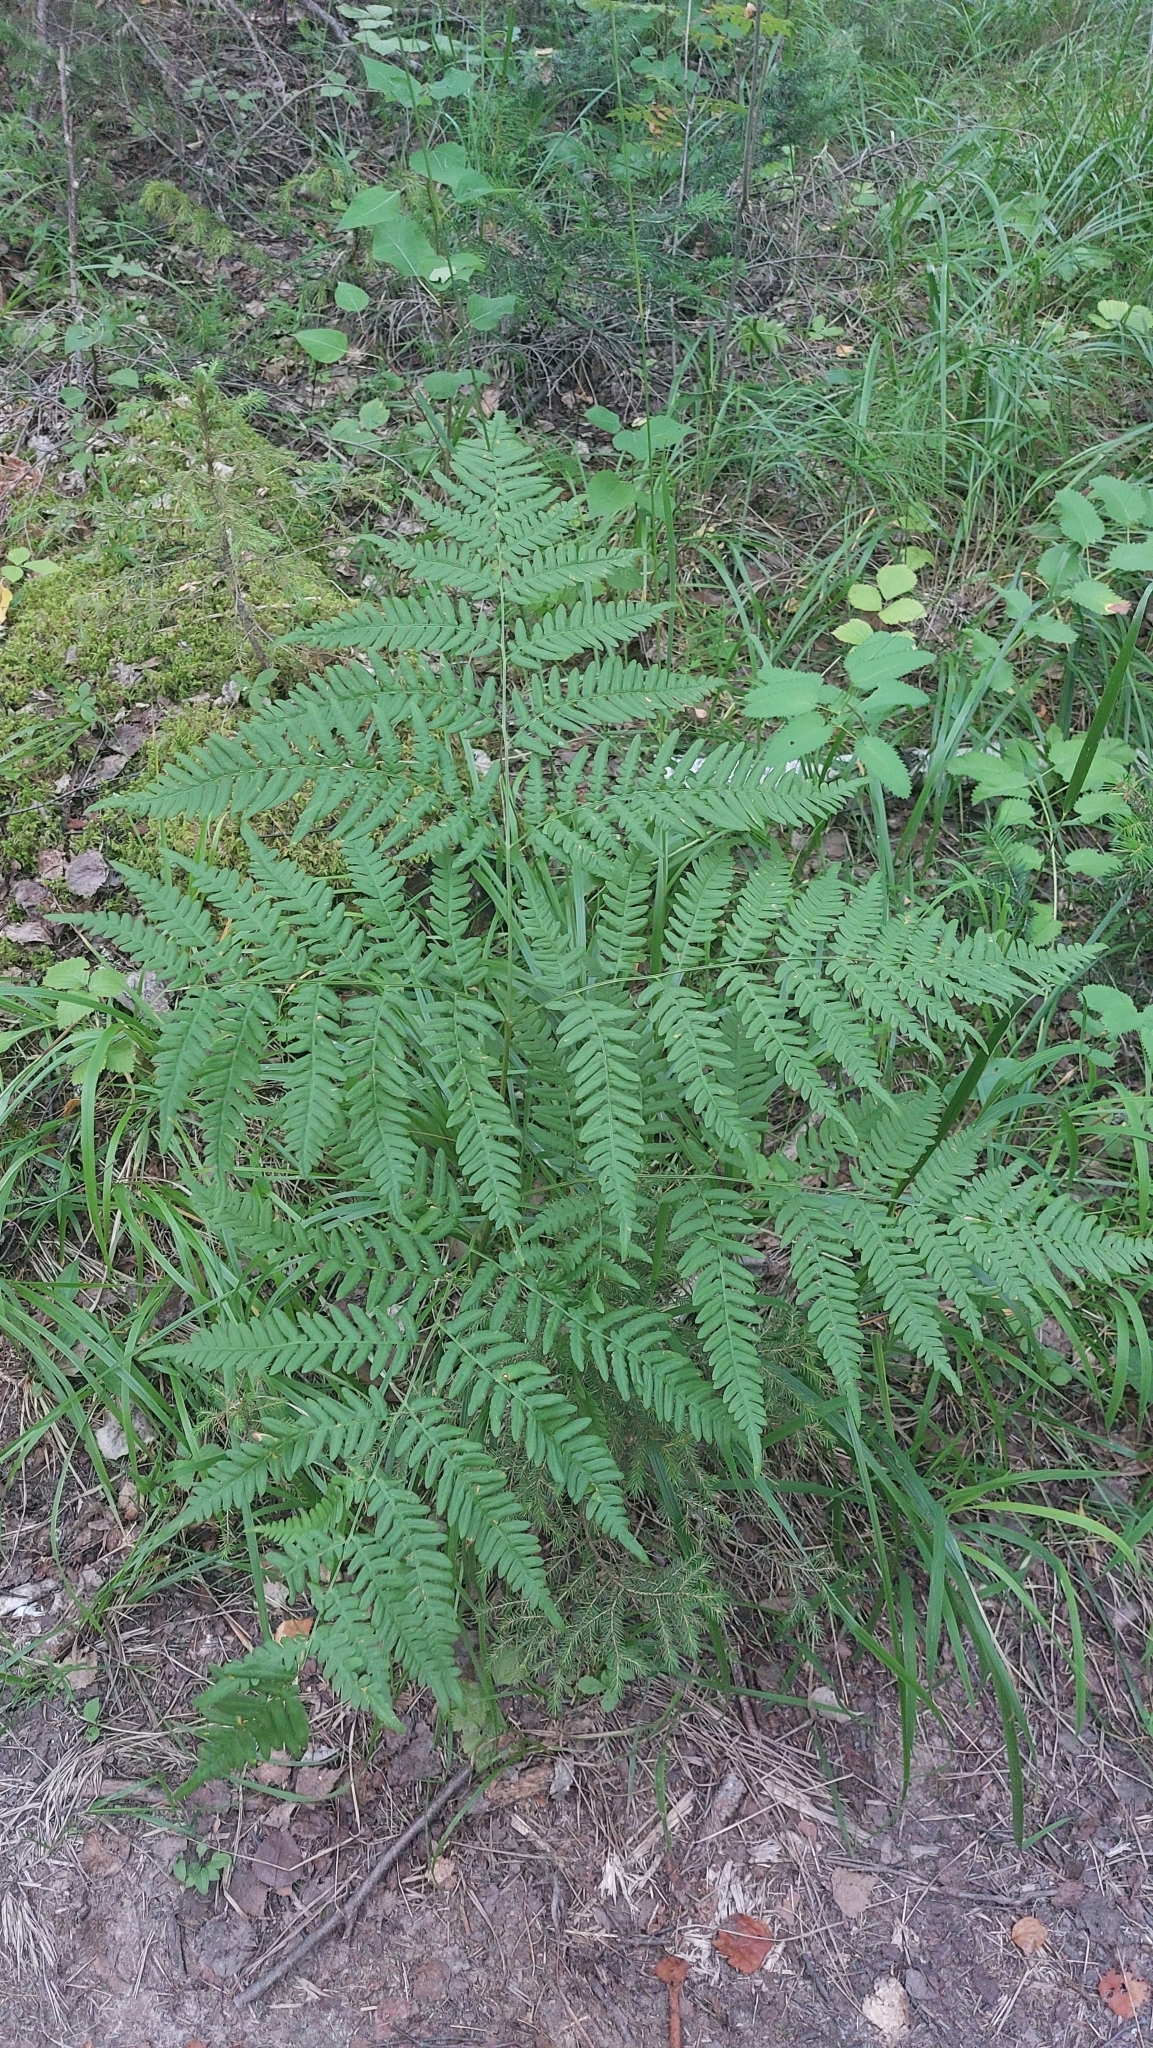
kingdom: Plantae
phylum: Tracheophyta
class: Polypodiopsida
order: Polypodiales
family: Dennstaedtiaceae
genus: Pteridium
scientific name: Pteridium aquilinum
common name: Bracken
